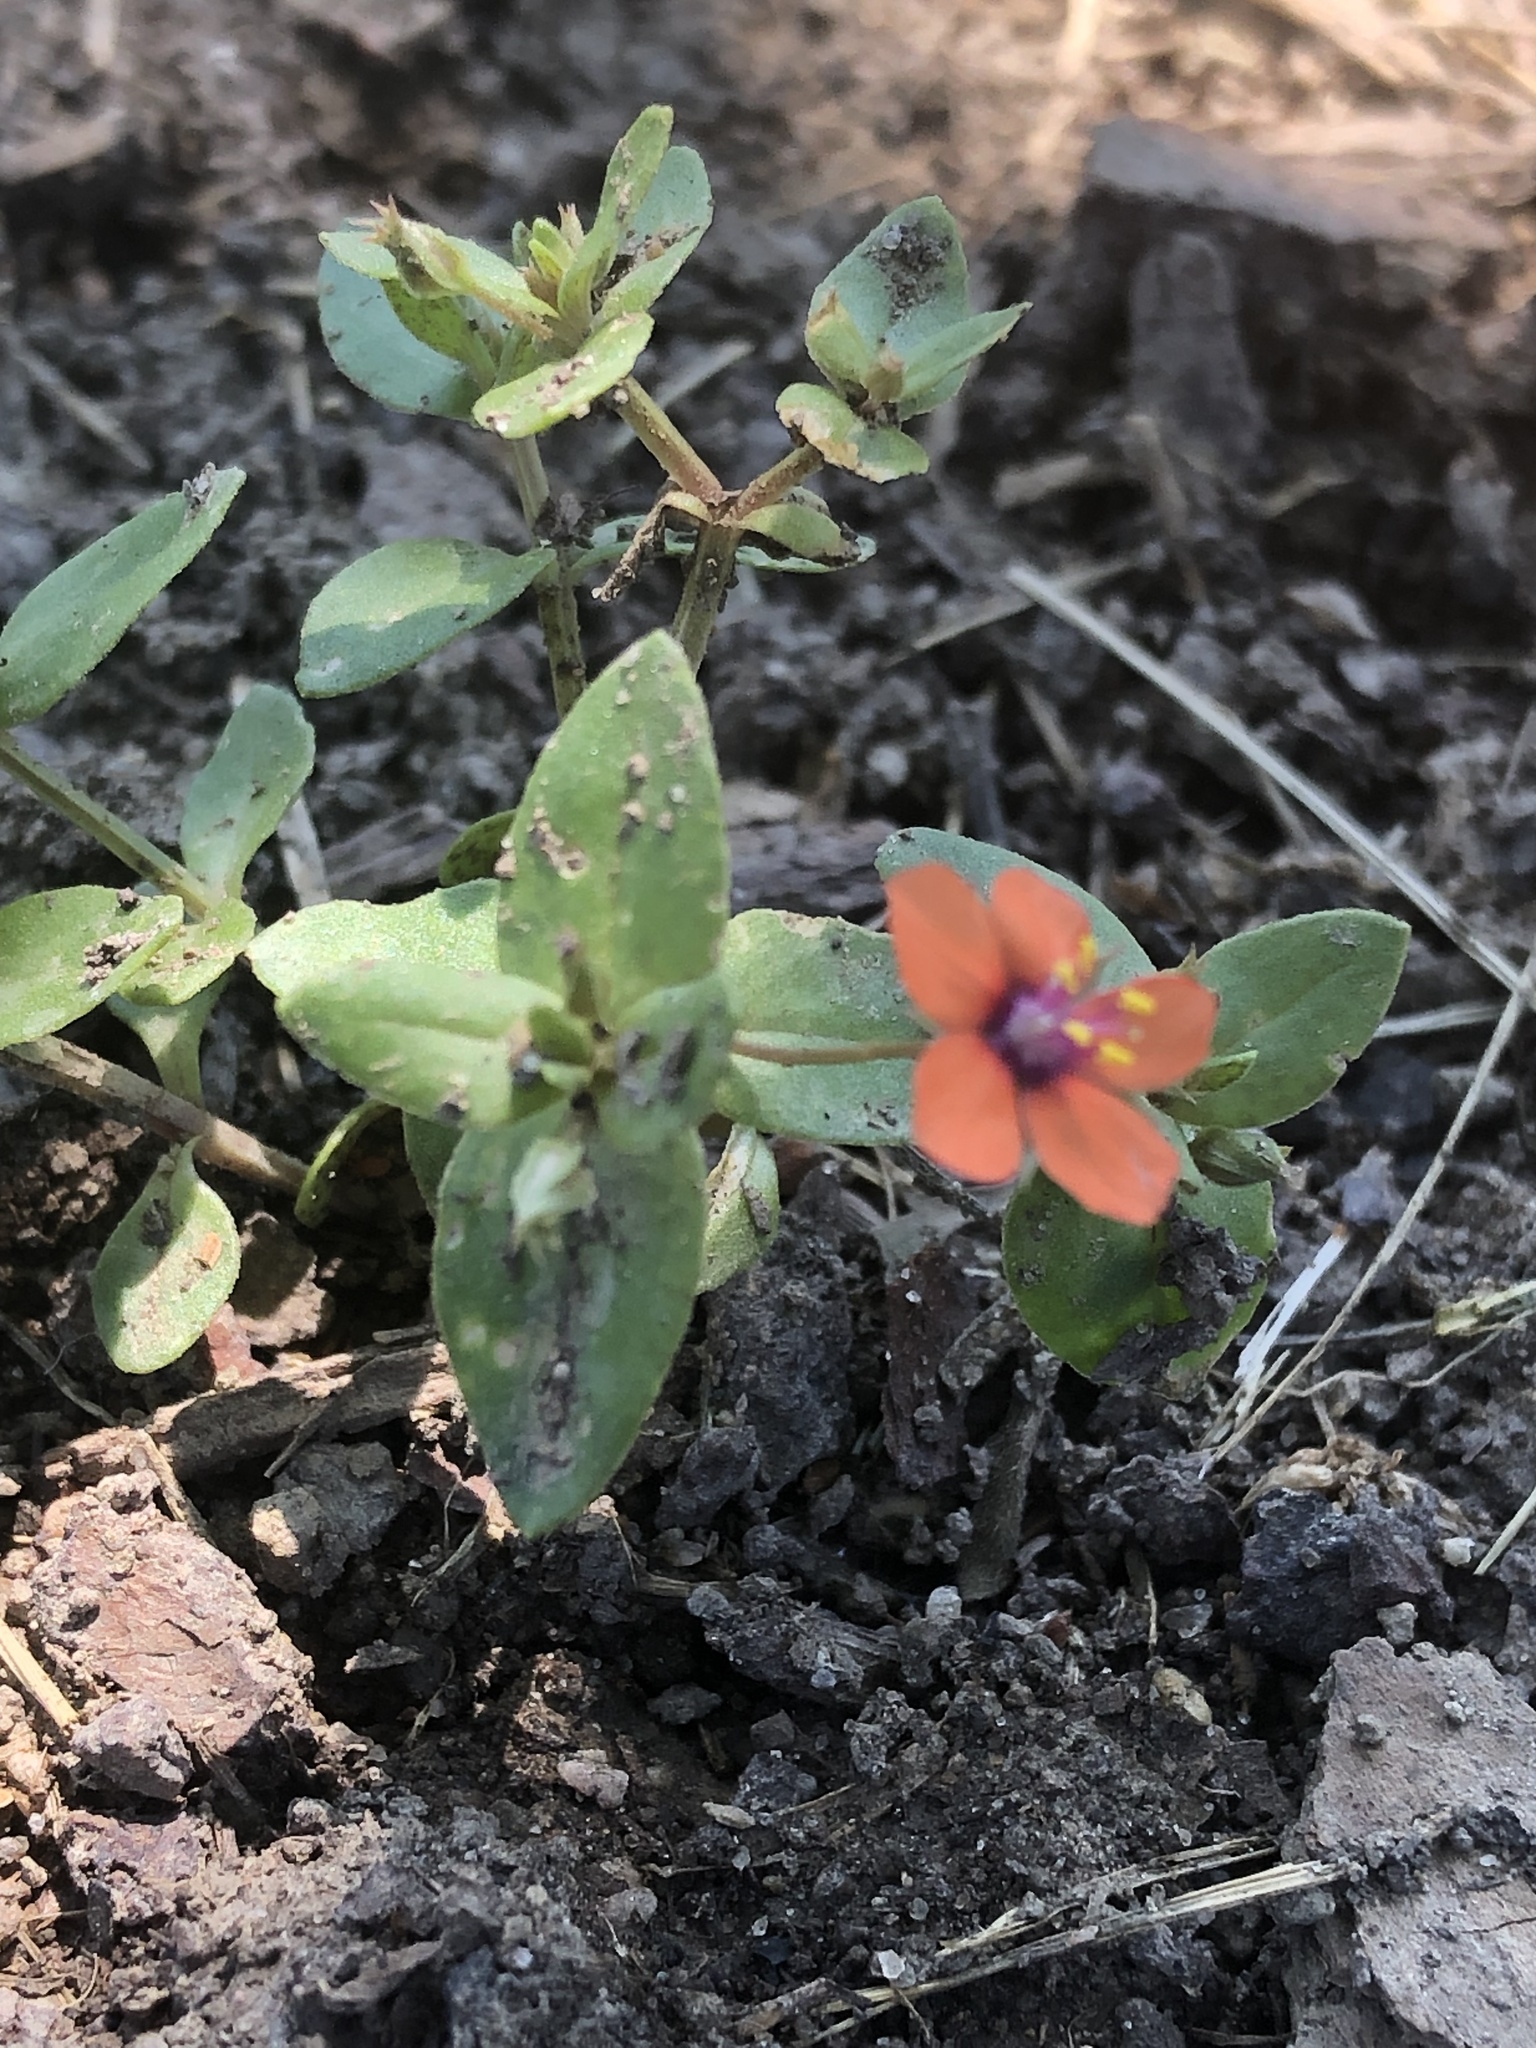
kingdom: Plantae
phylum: Tracheophyta
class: Magnoliopsida
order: Ericales
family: Primulaceae
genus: Lysimachia
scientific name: Lysimachia arvensis
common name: Scarlet pimpernel
